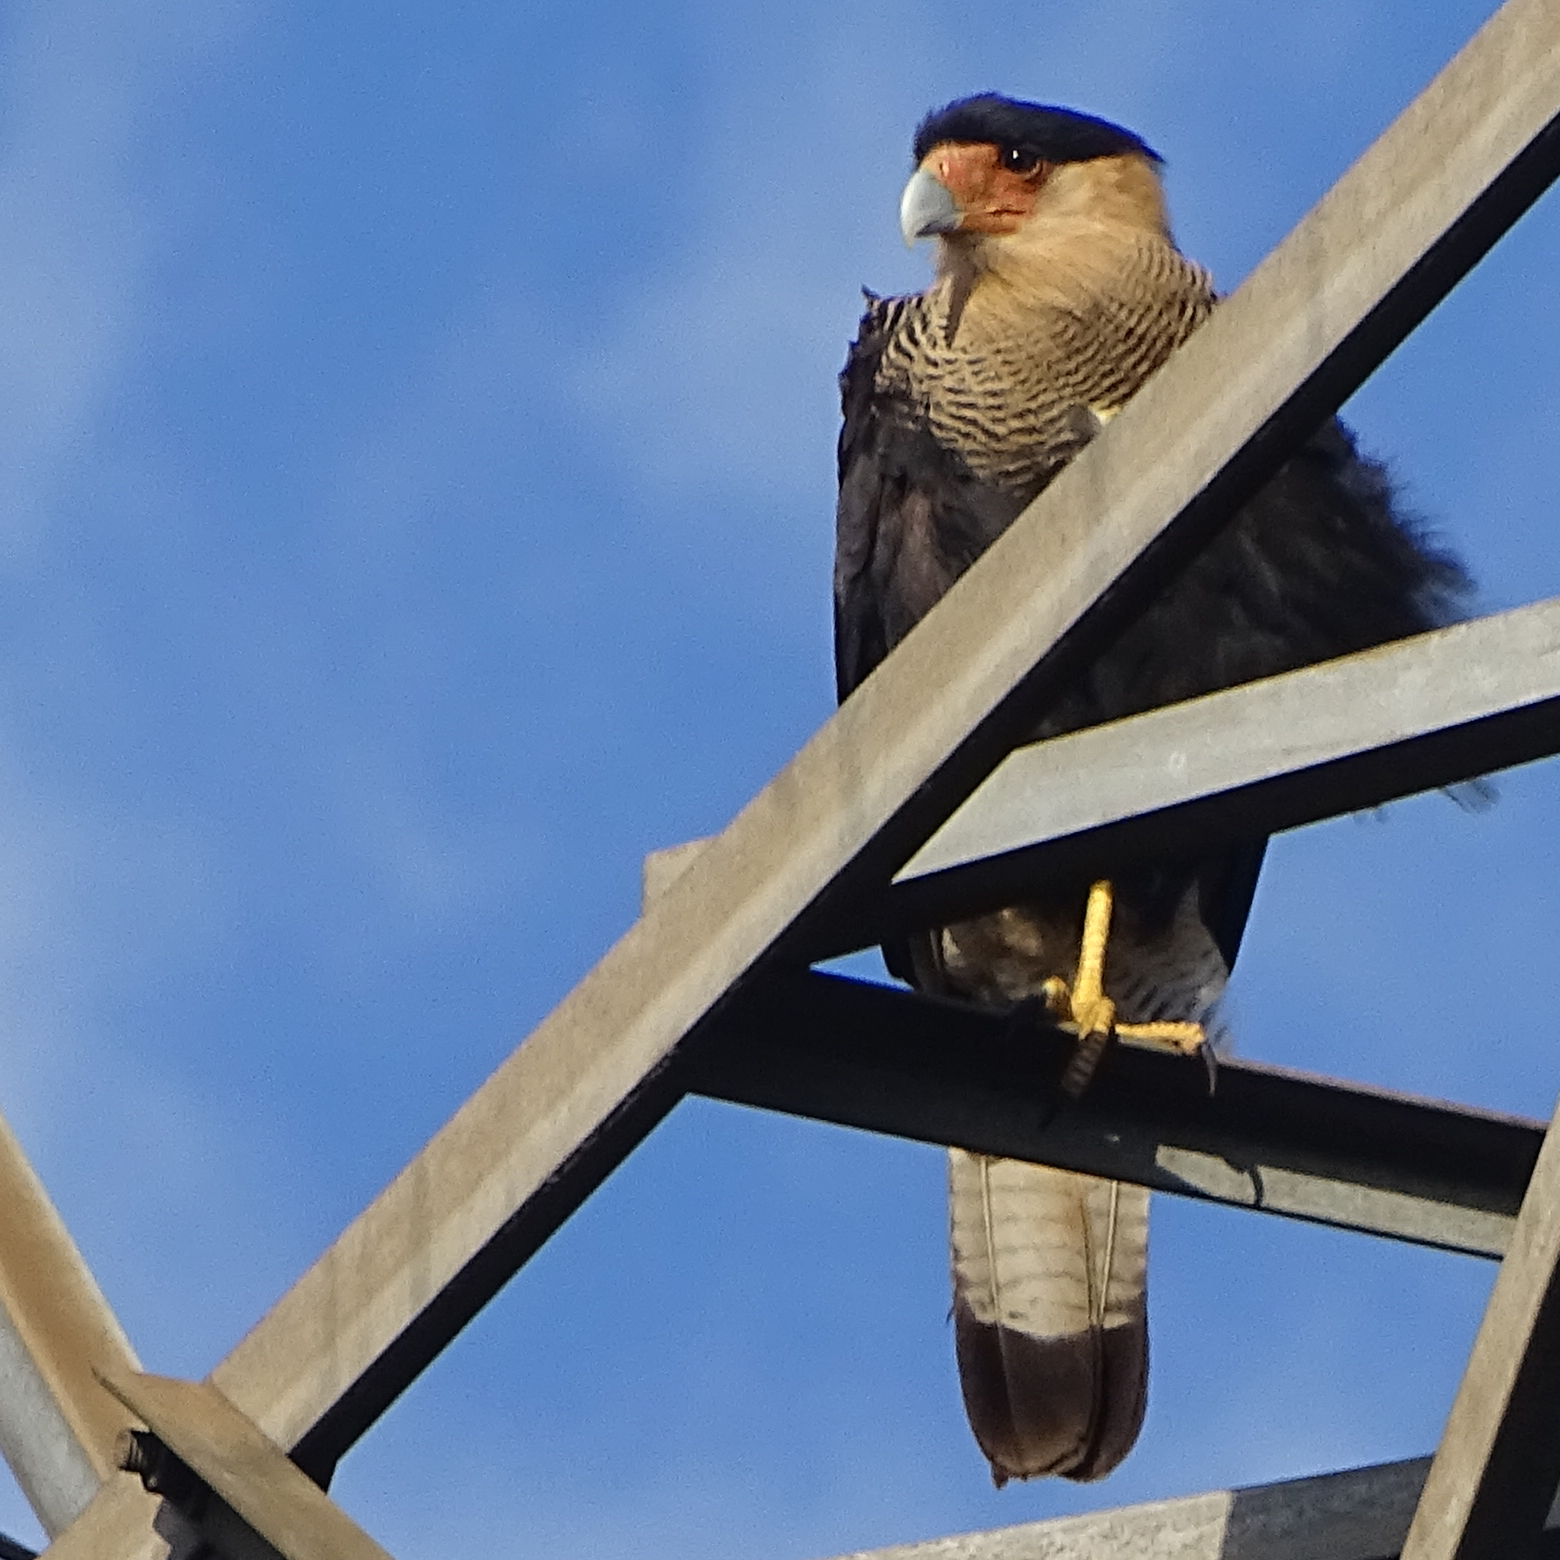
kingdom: Animalia
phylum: Chordata
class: Aves
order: Falconiformes
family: Falconidae
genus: Caracara
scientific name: Caracara plancus
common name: Southern caracara
